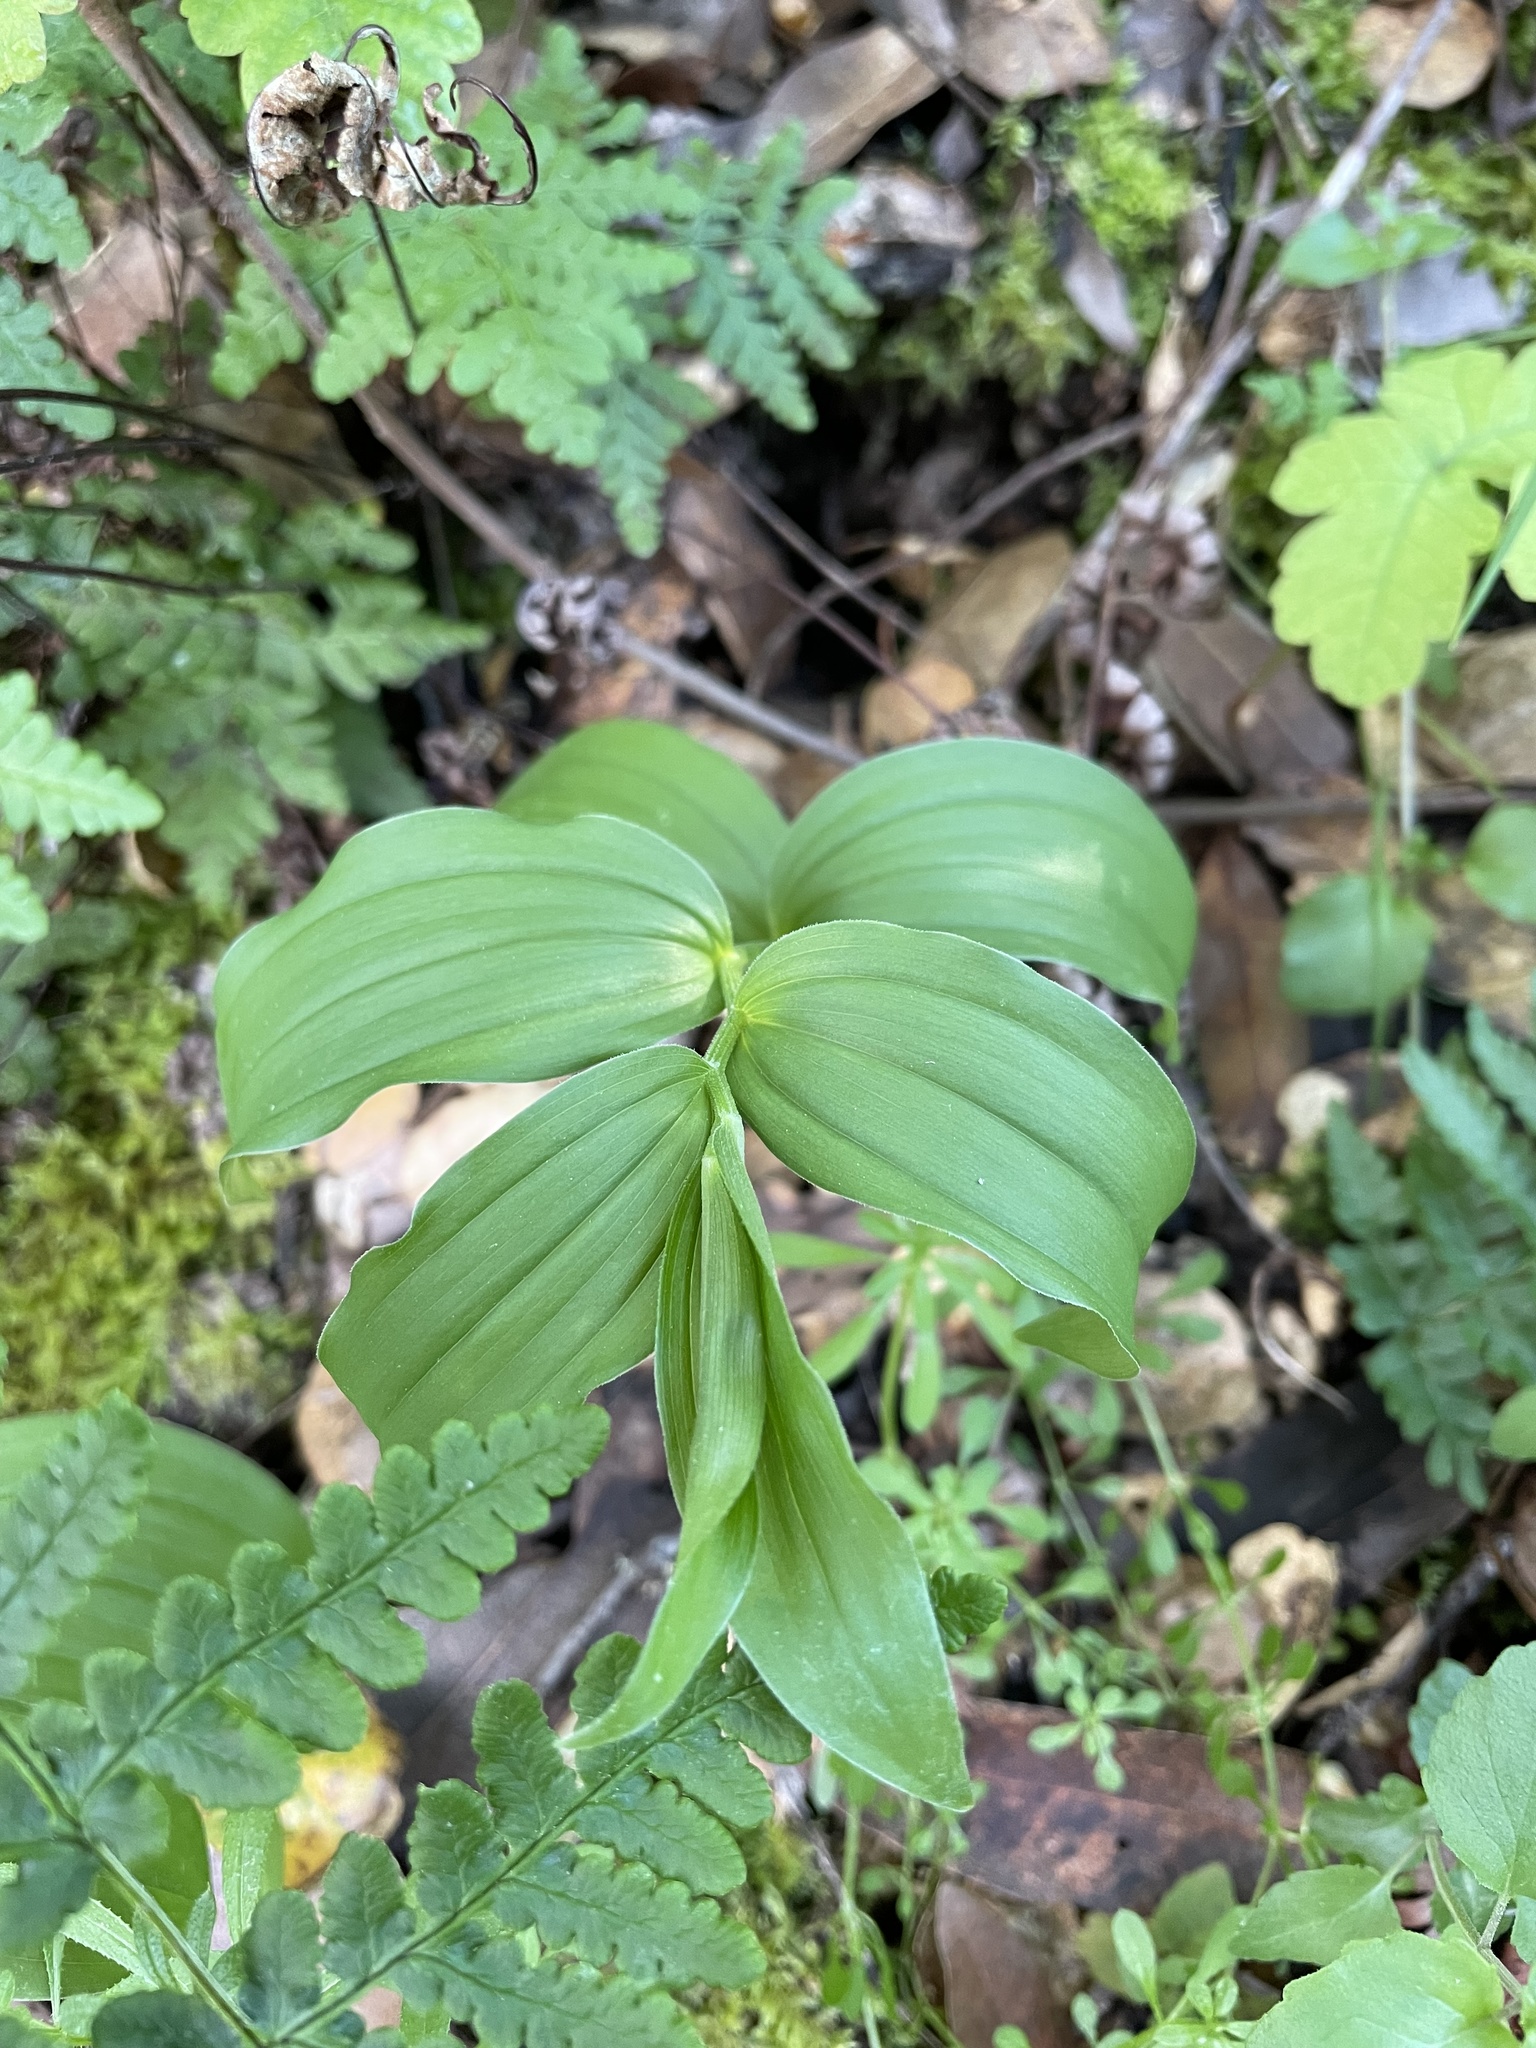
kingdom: Plantae
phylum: Tracheophyta
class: Liliopsida
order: Asparagales
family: Asparagaceae
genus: Maianthemum
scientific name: Maianthemum racemosum
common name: False spikenard
